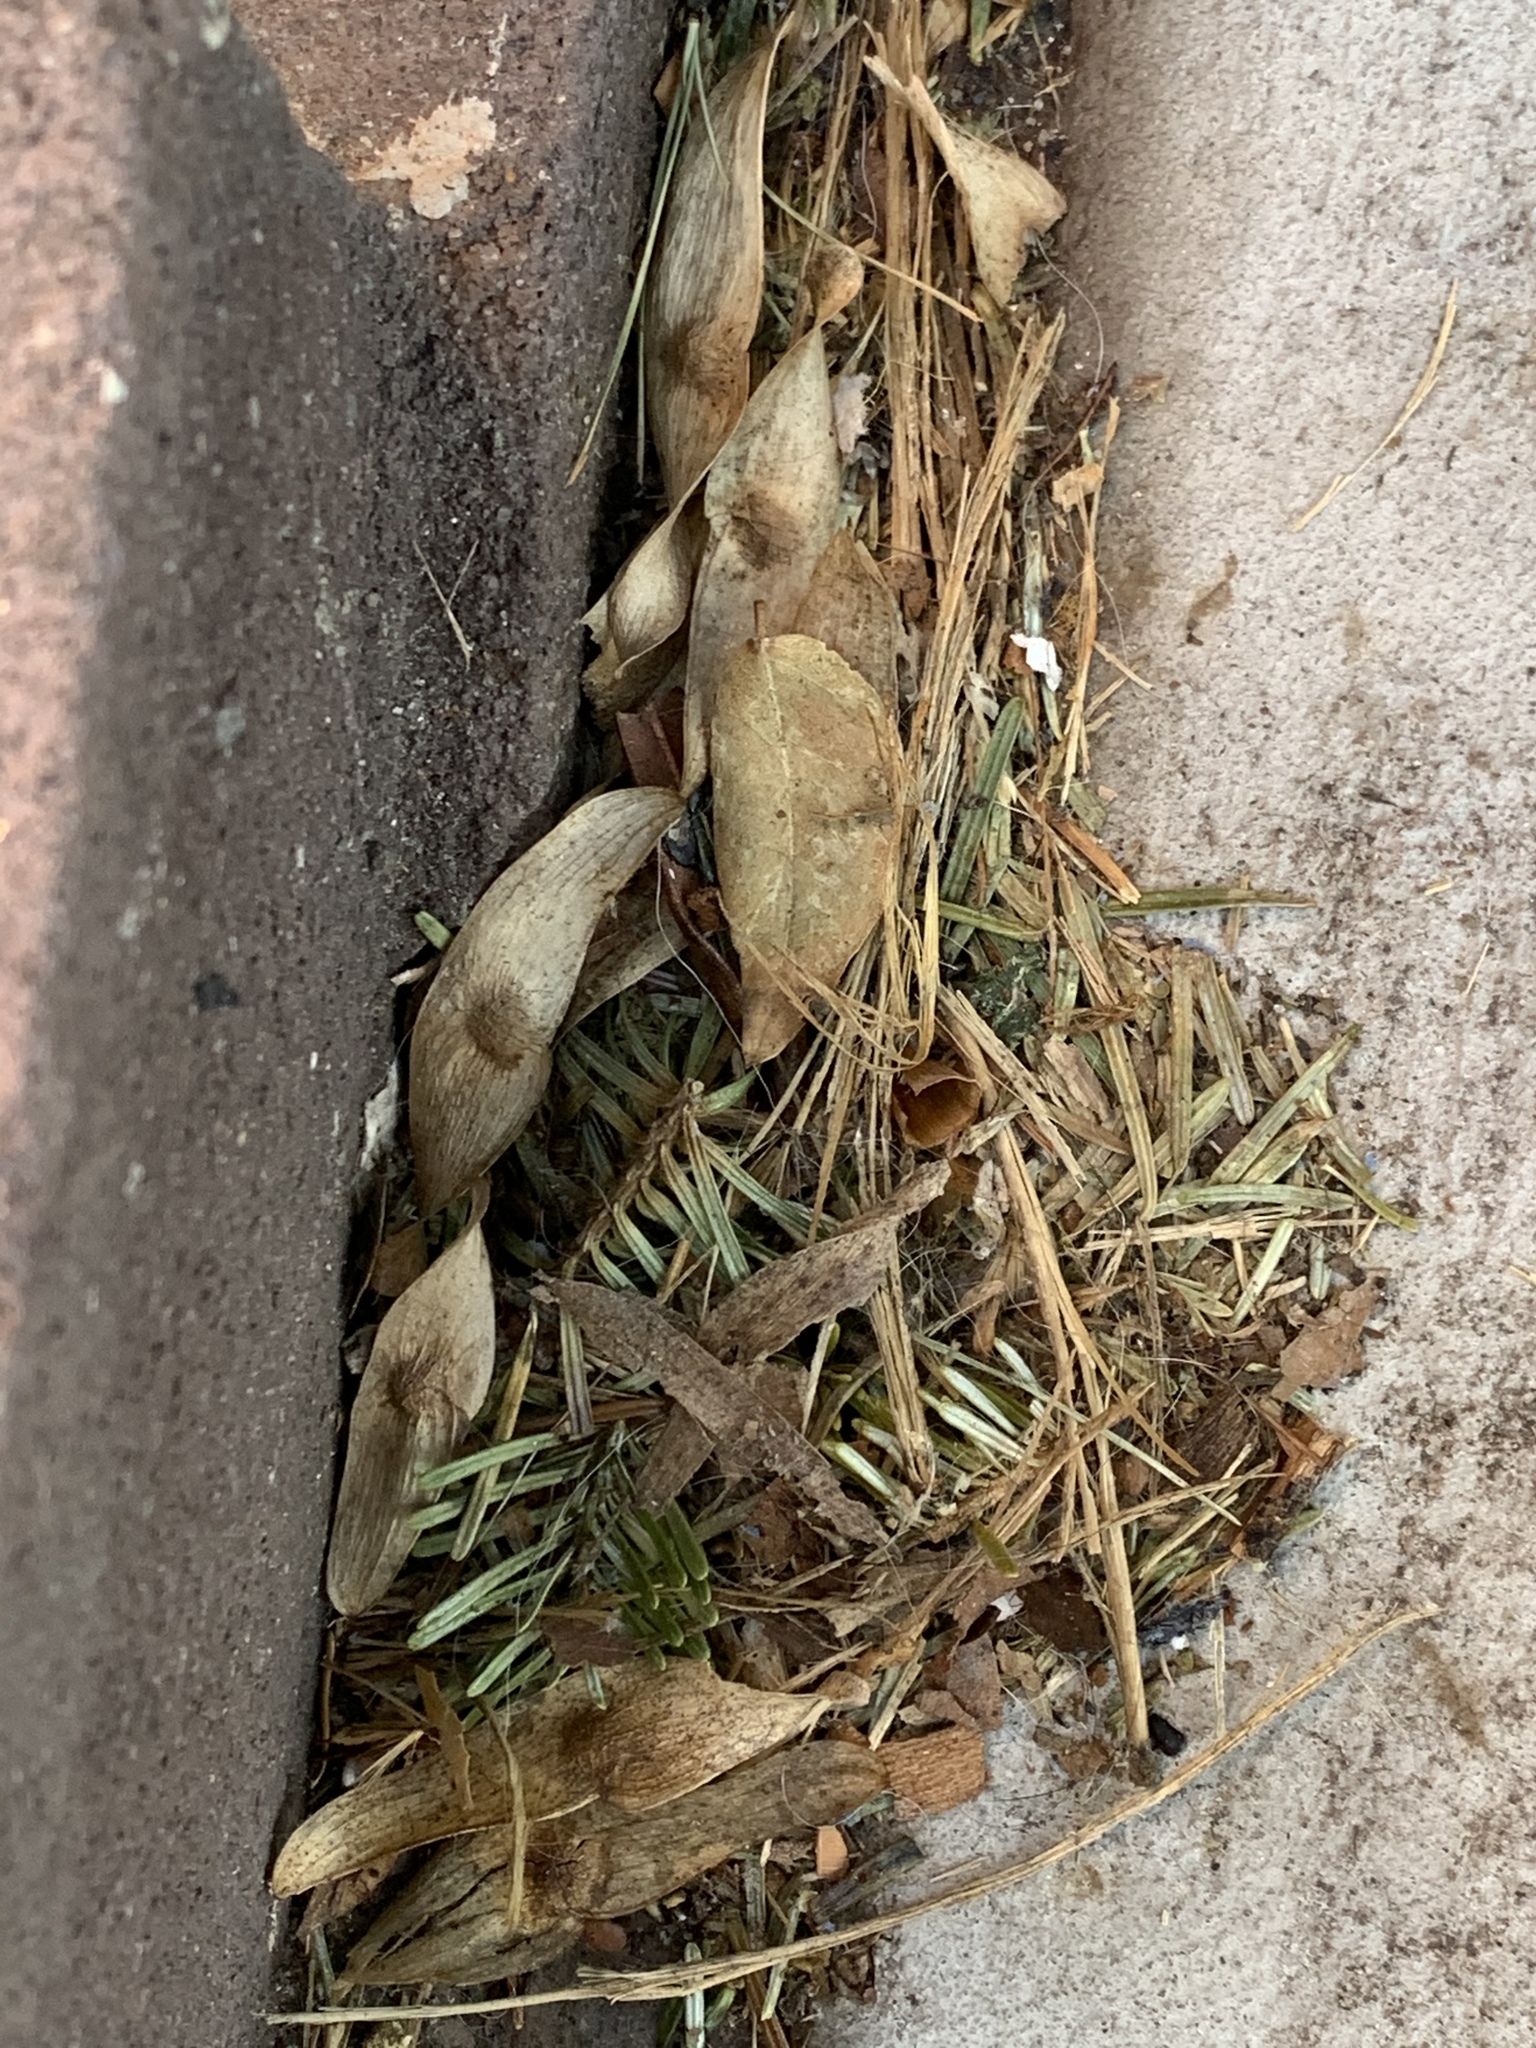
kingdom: Plantae
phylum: Tracheophyta
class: Magnoliopsida
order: Sapindales
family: Simaroubaceae
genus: Ailanthus
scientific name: Ailanthus altissima
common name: Tree-of-heaven
